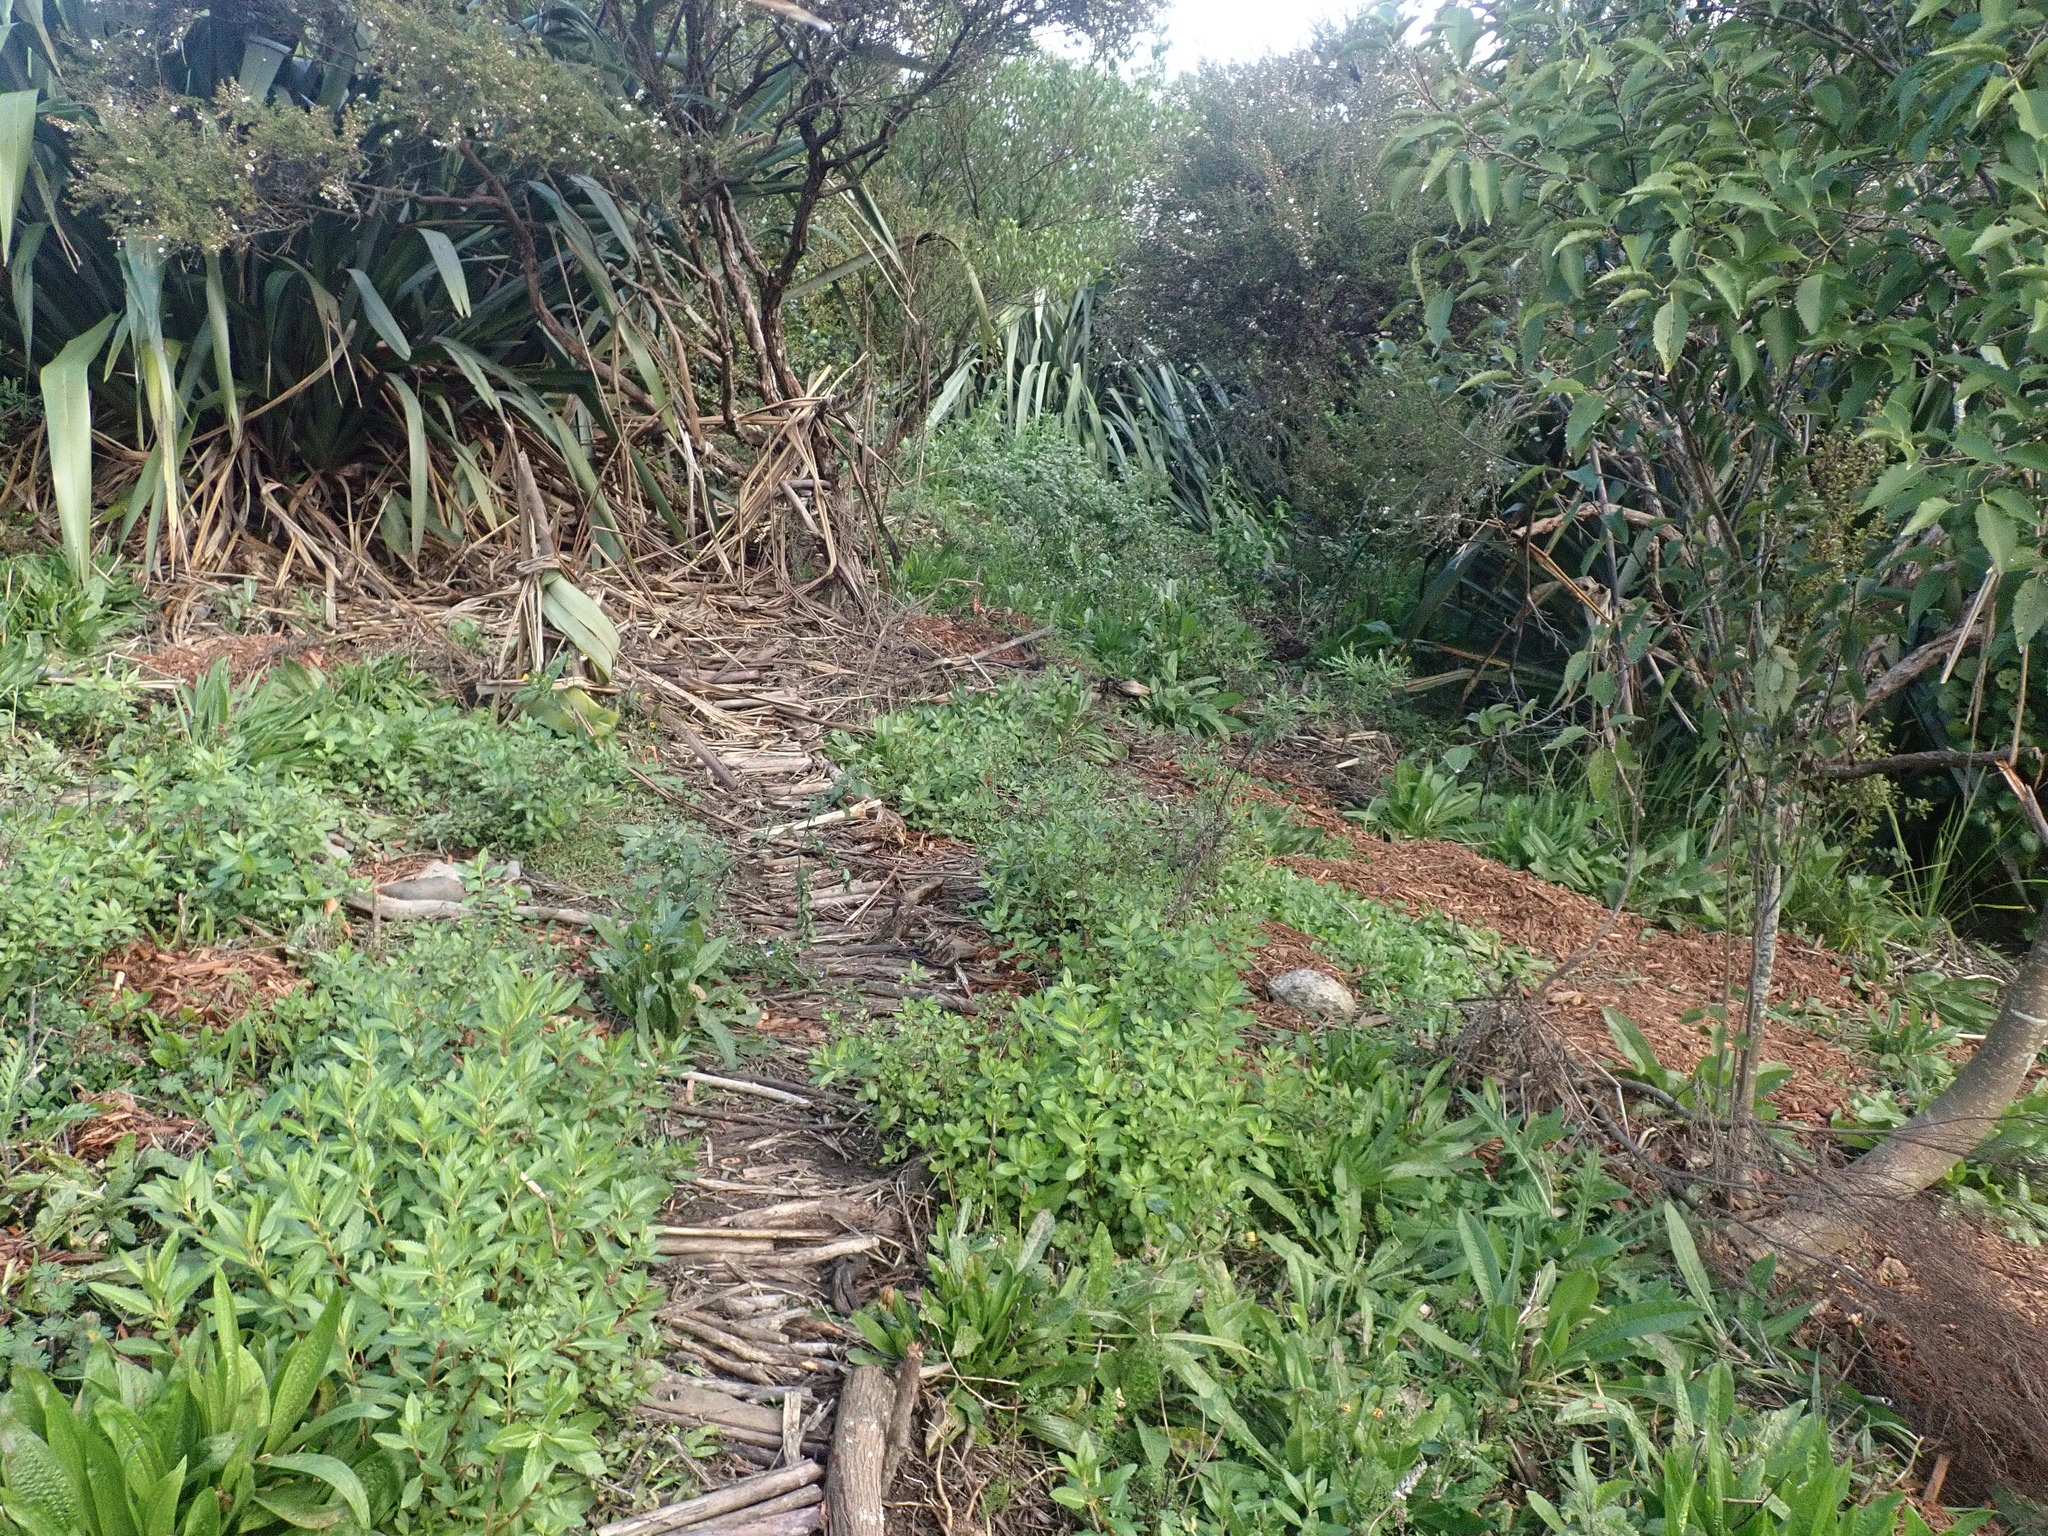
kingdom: Plantae
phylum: Tracheophyta
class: Magnoliopsida
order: Saxifragales
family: Haloragaceae
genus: Haloragis
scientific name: Haloragis erecta
